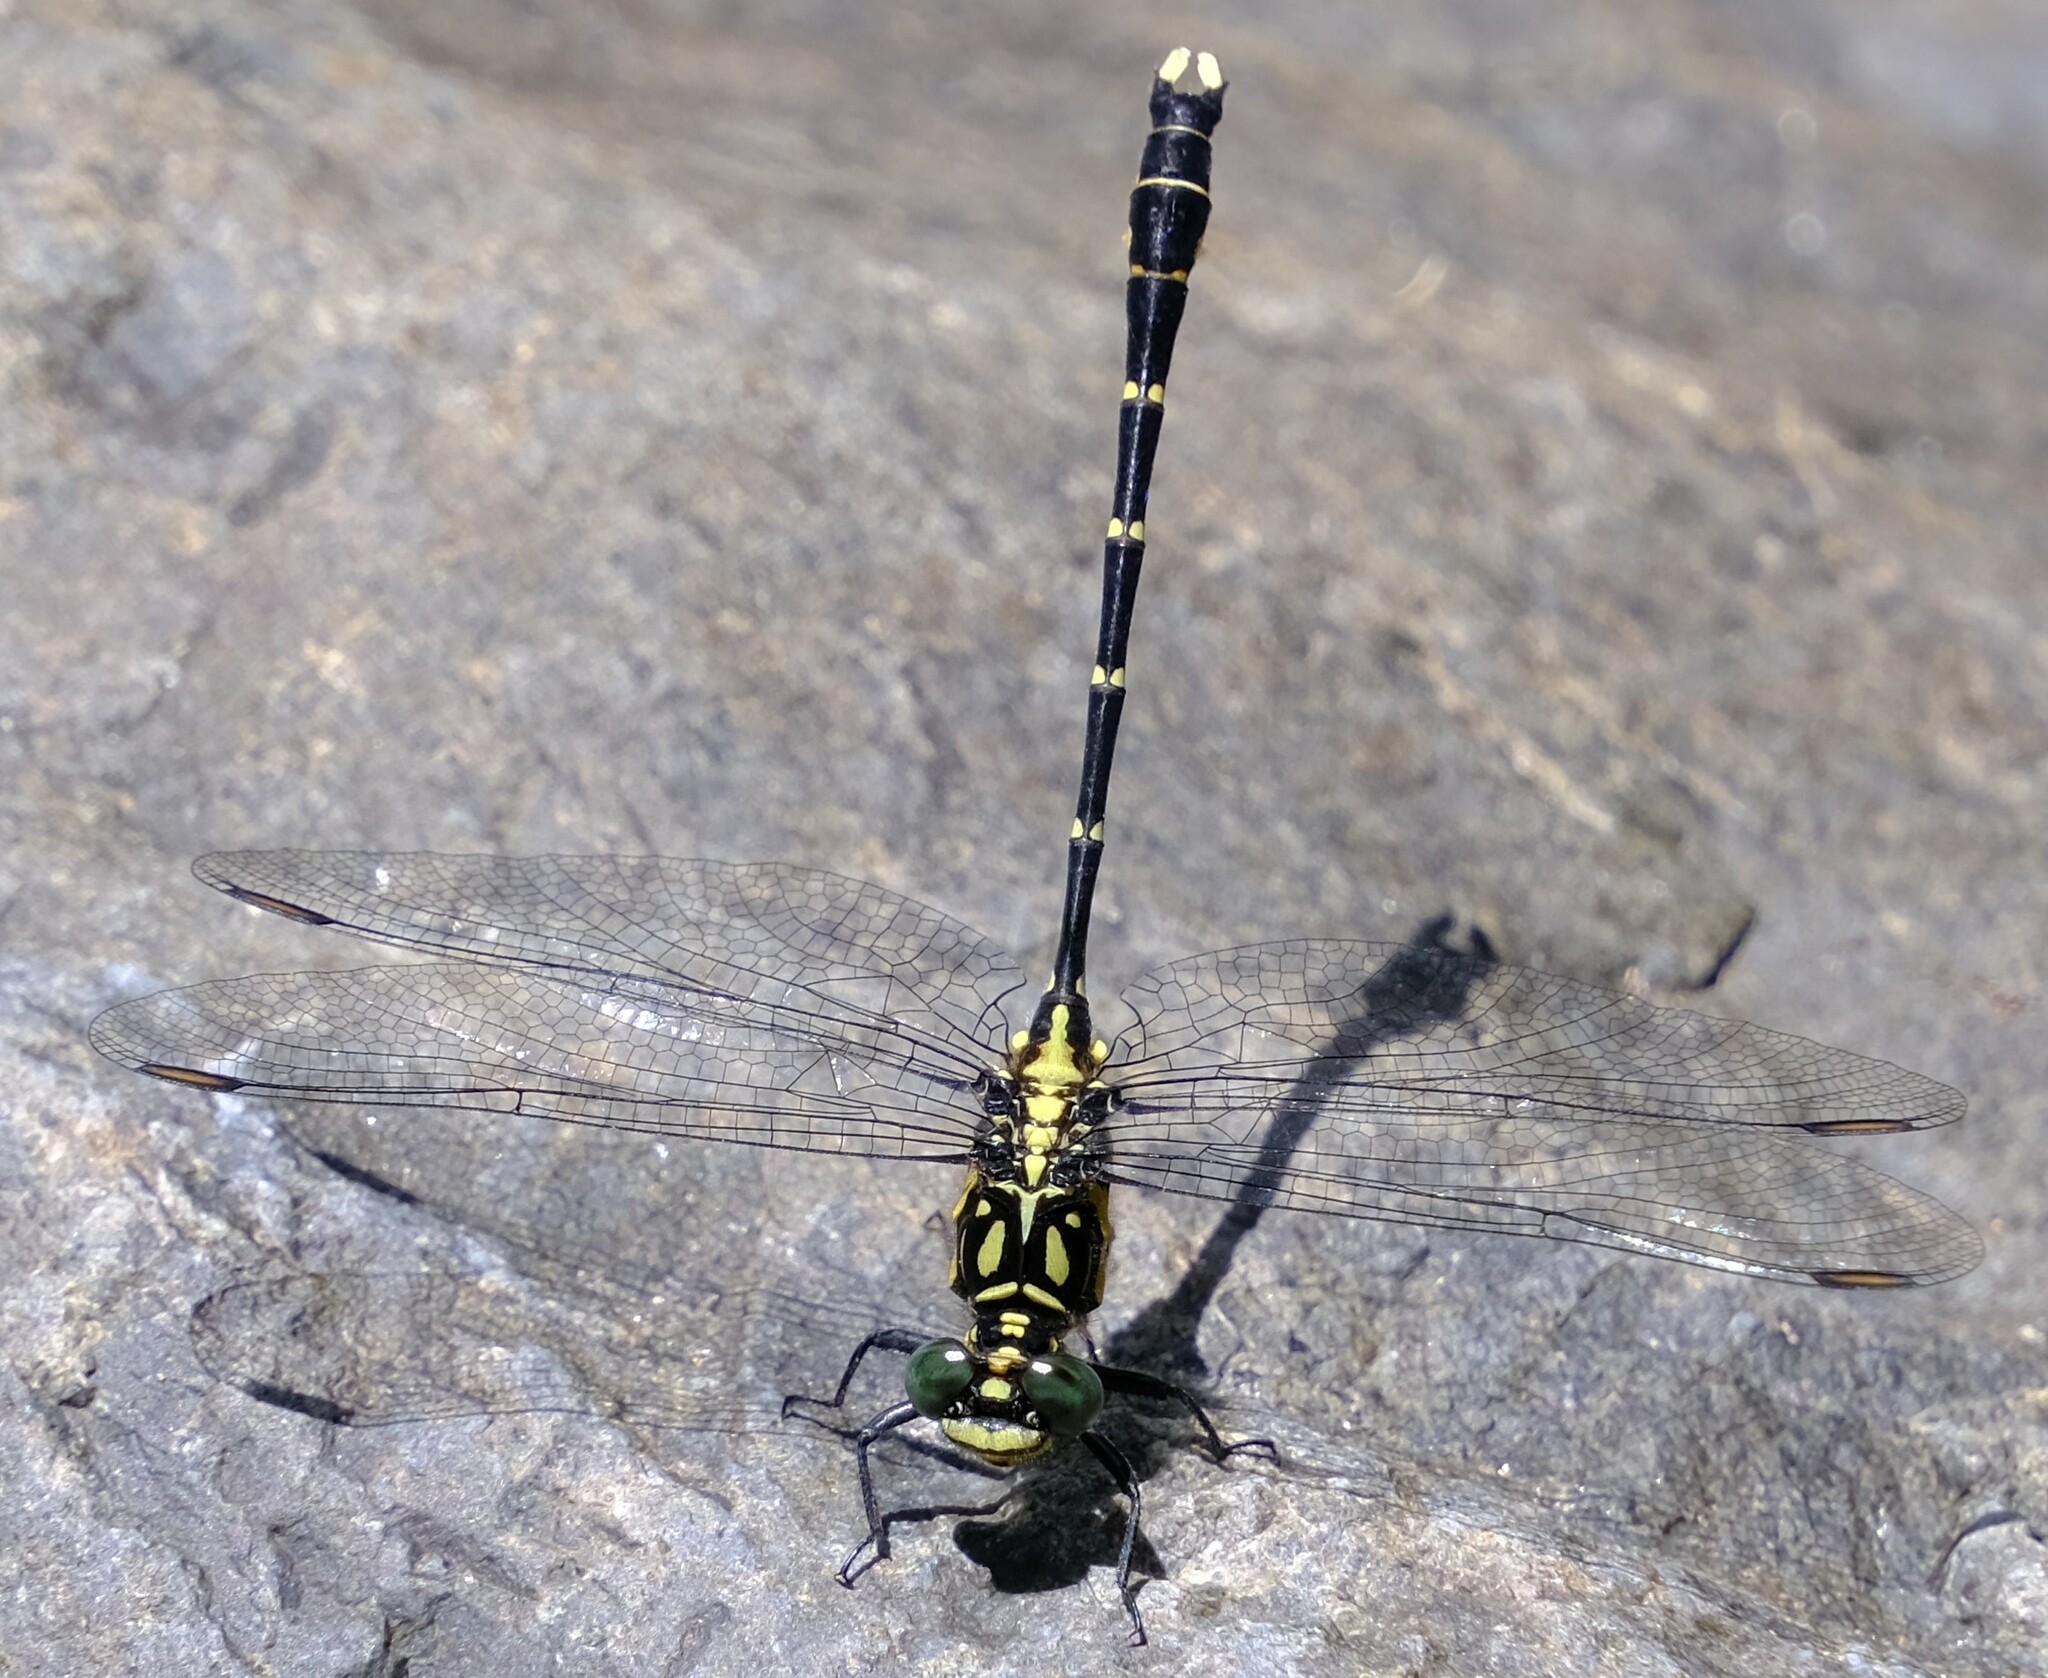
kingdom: Animalia
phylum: Arthropoda
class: Insecta
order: Odonata
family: Gomphidae
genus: Hemigomphus
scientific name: Hemigomphus gouldii
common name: Southern vicetail
